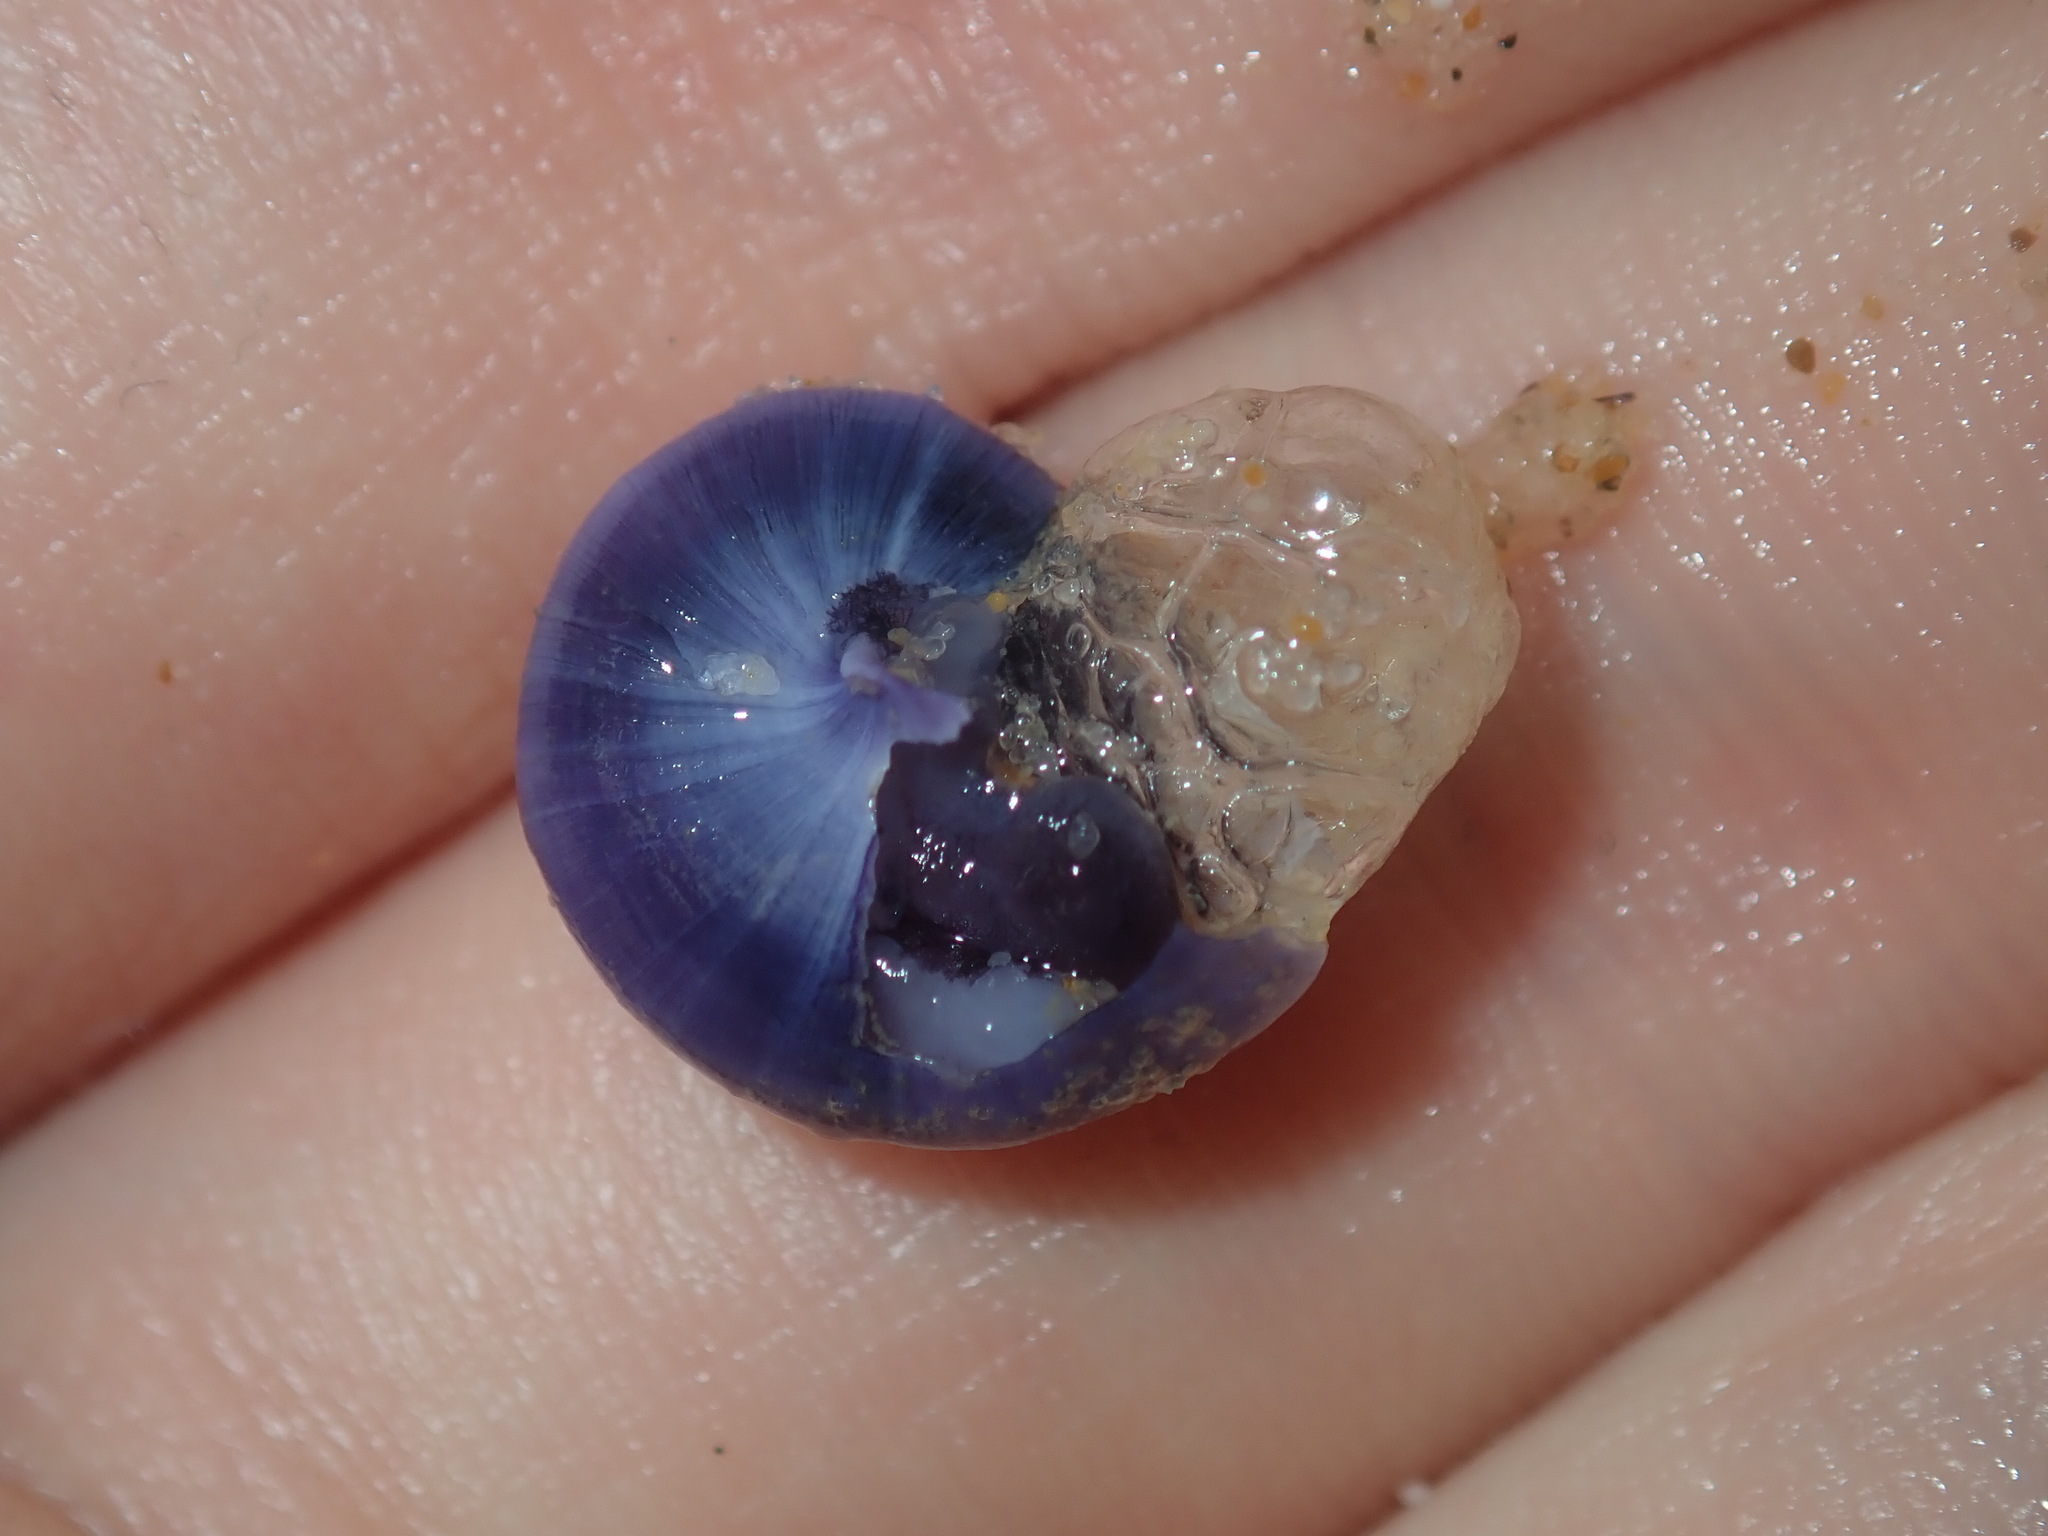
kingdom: Animalia
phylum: Mollusca
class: Gastropoda
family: Epitoniidae
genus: Janthina
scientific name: Janthina janthina
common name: Common janthina
